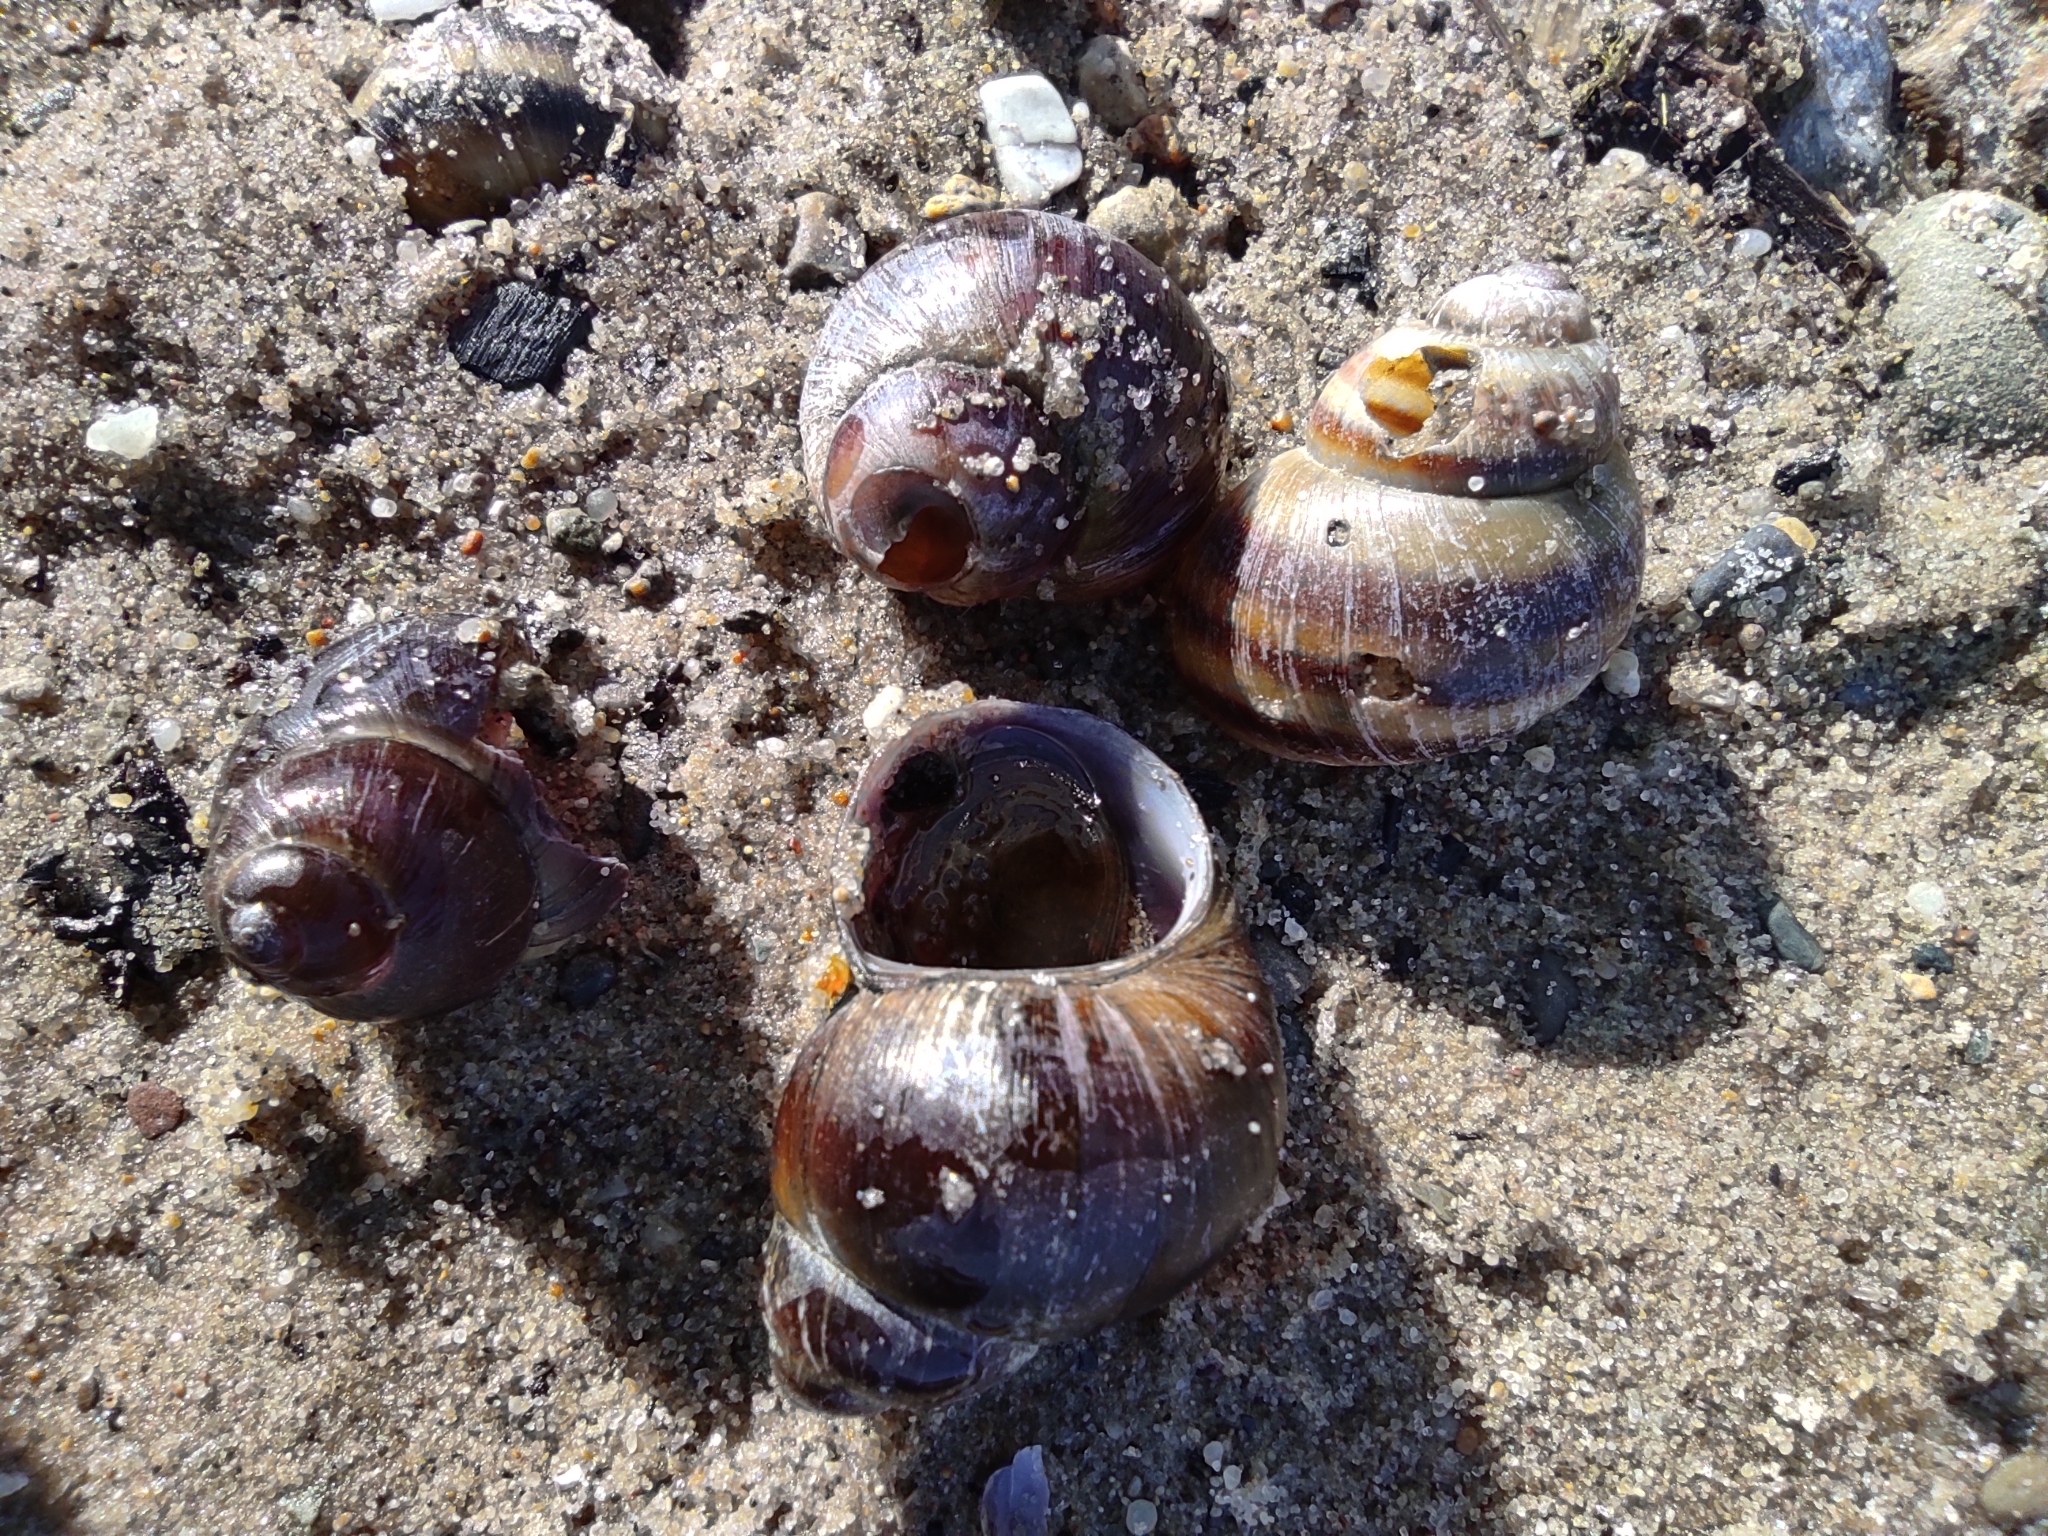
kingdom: Animalia
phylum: Mollusca
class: Gastropoda
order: Architaenioglossa
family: Viviparidae
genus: Viviparus
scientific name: Viviparus viviparus
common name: River snail
